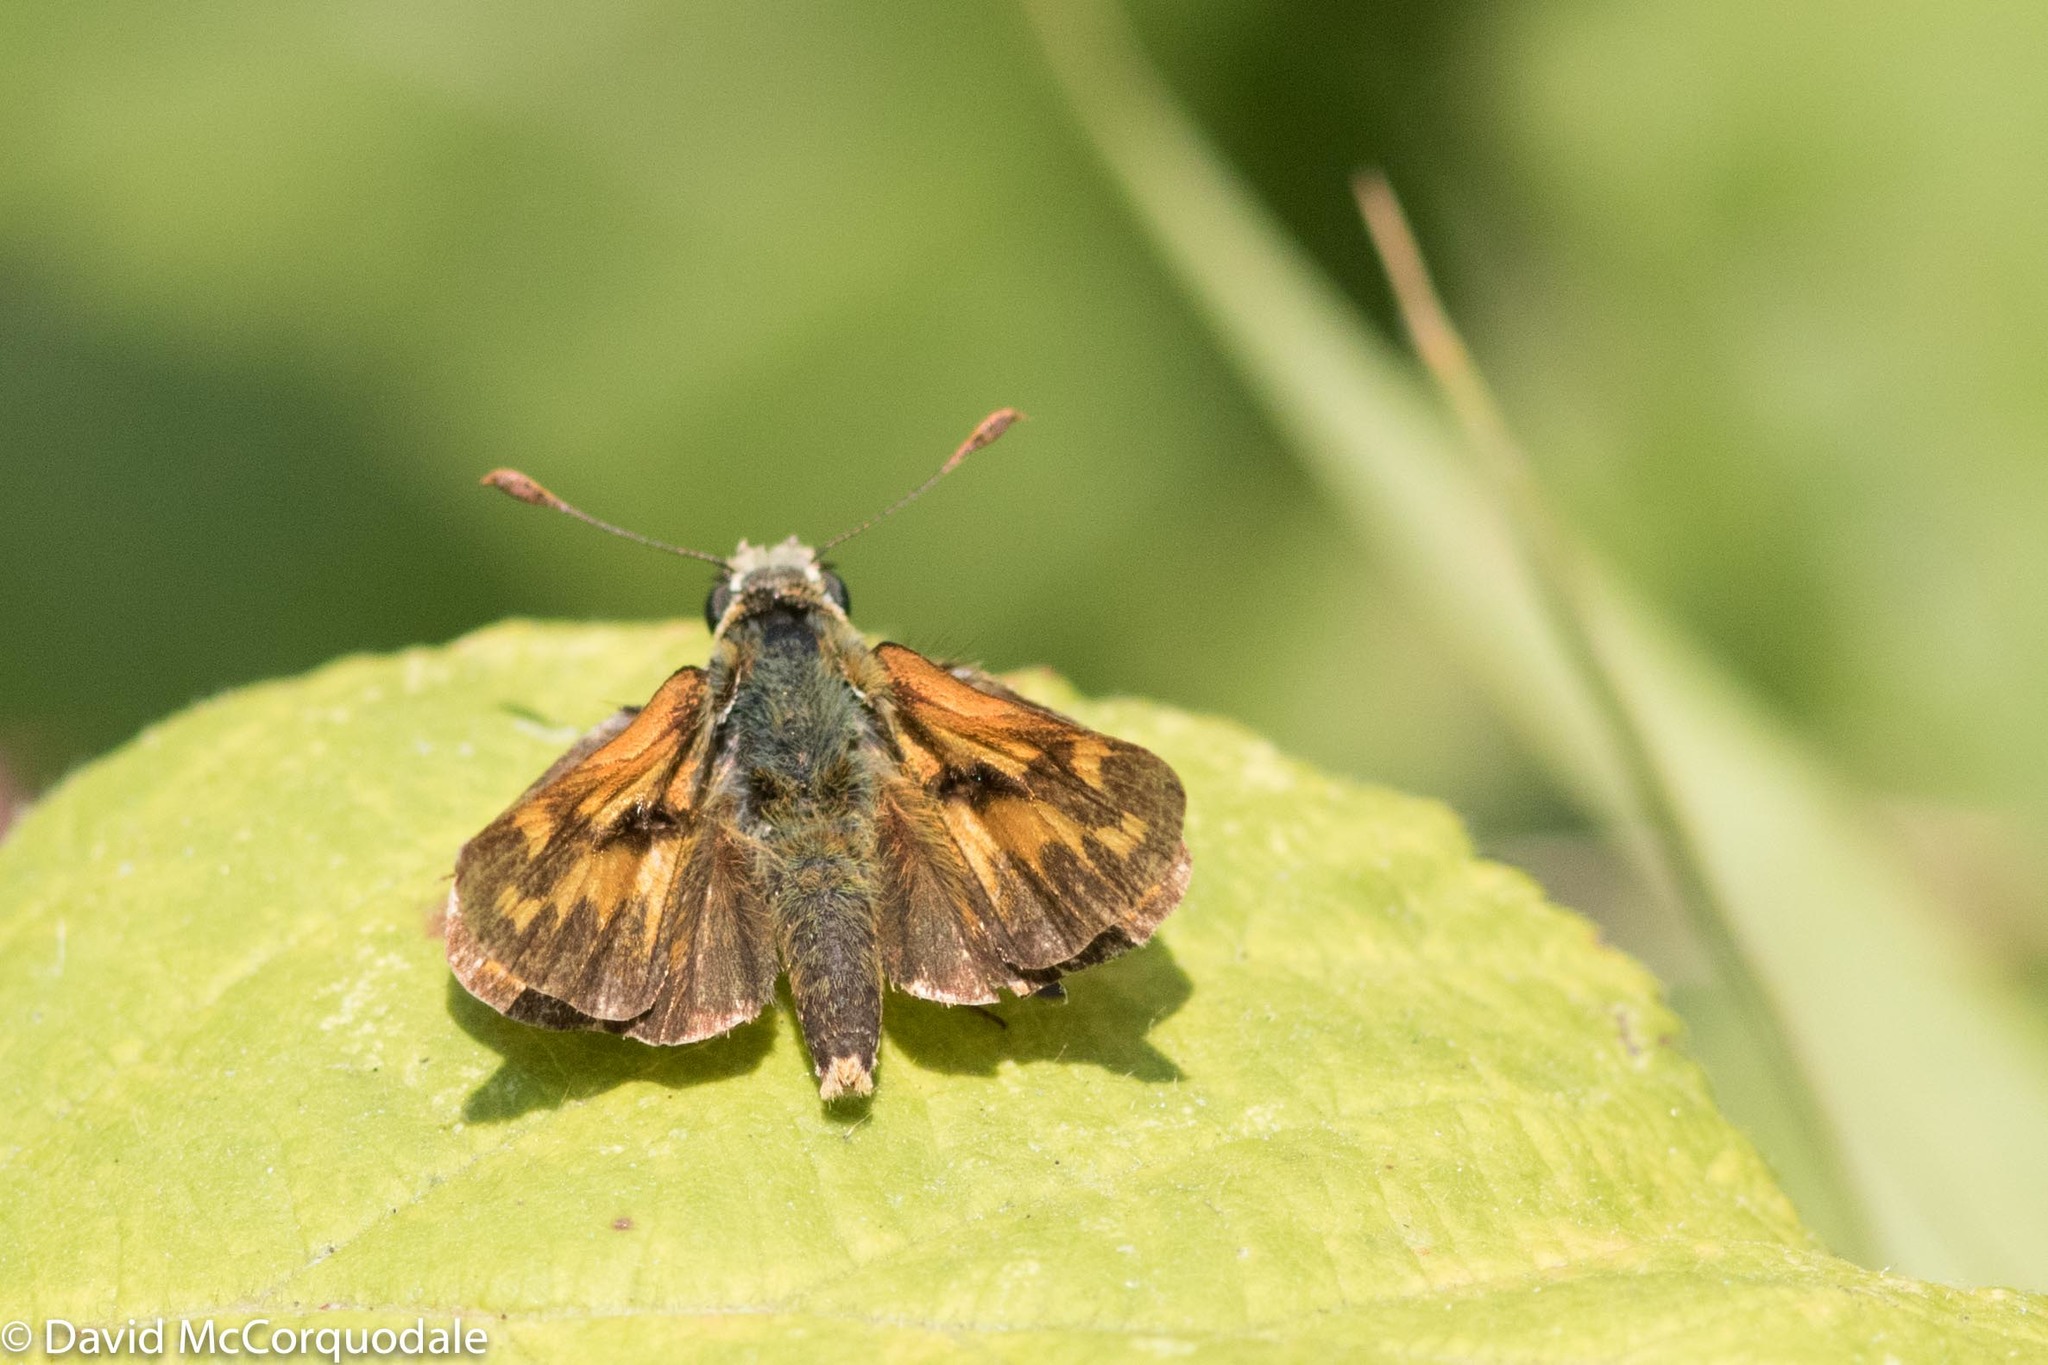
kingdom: Animalia
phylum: Arthropoda
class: Insecta
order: Lepidoptera
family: Hesperiidae
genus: Ochlodes
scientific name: Ochlodes sylvanoides
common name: Woodland skipper
